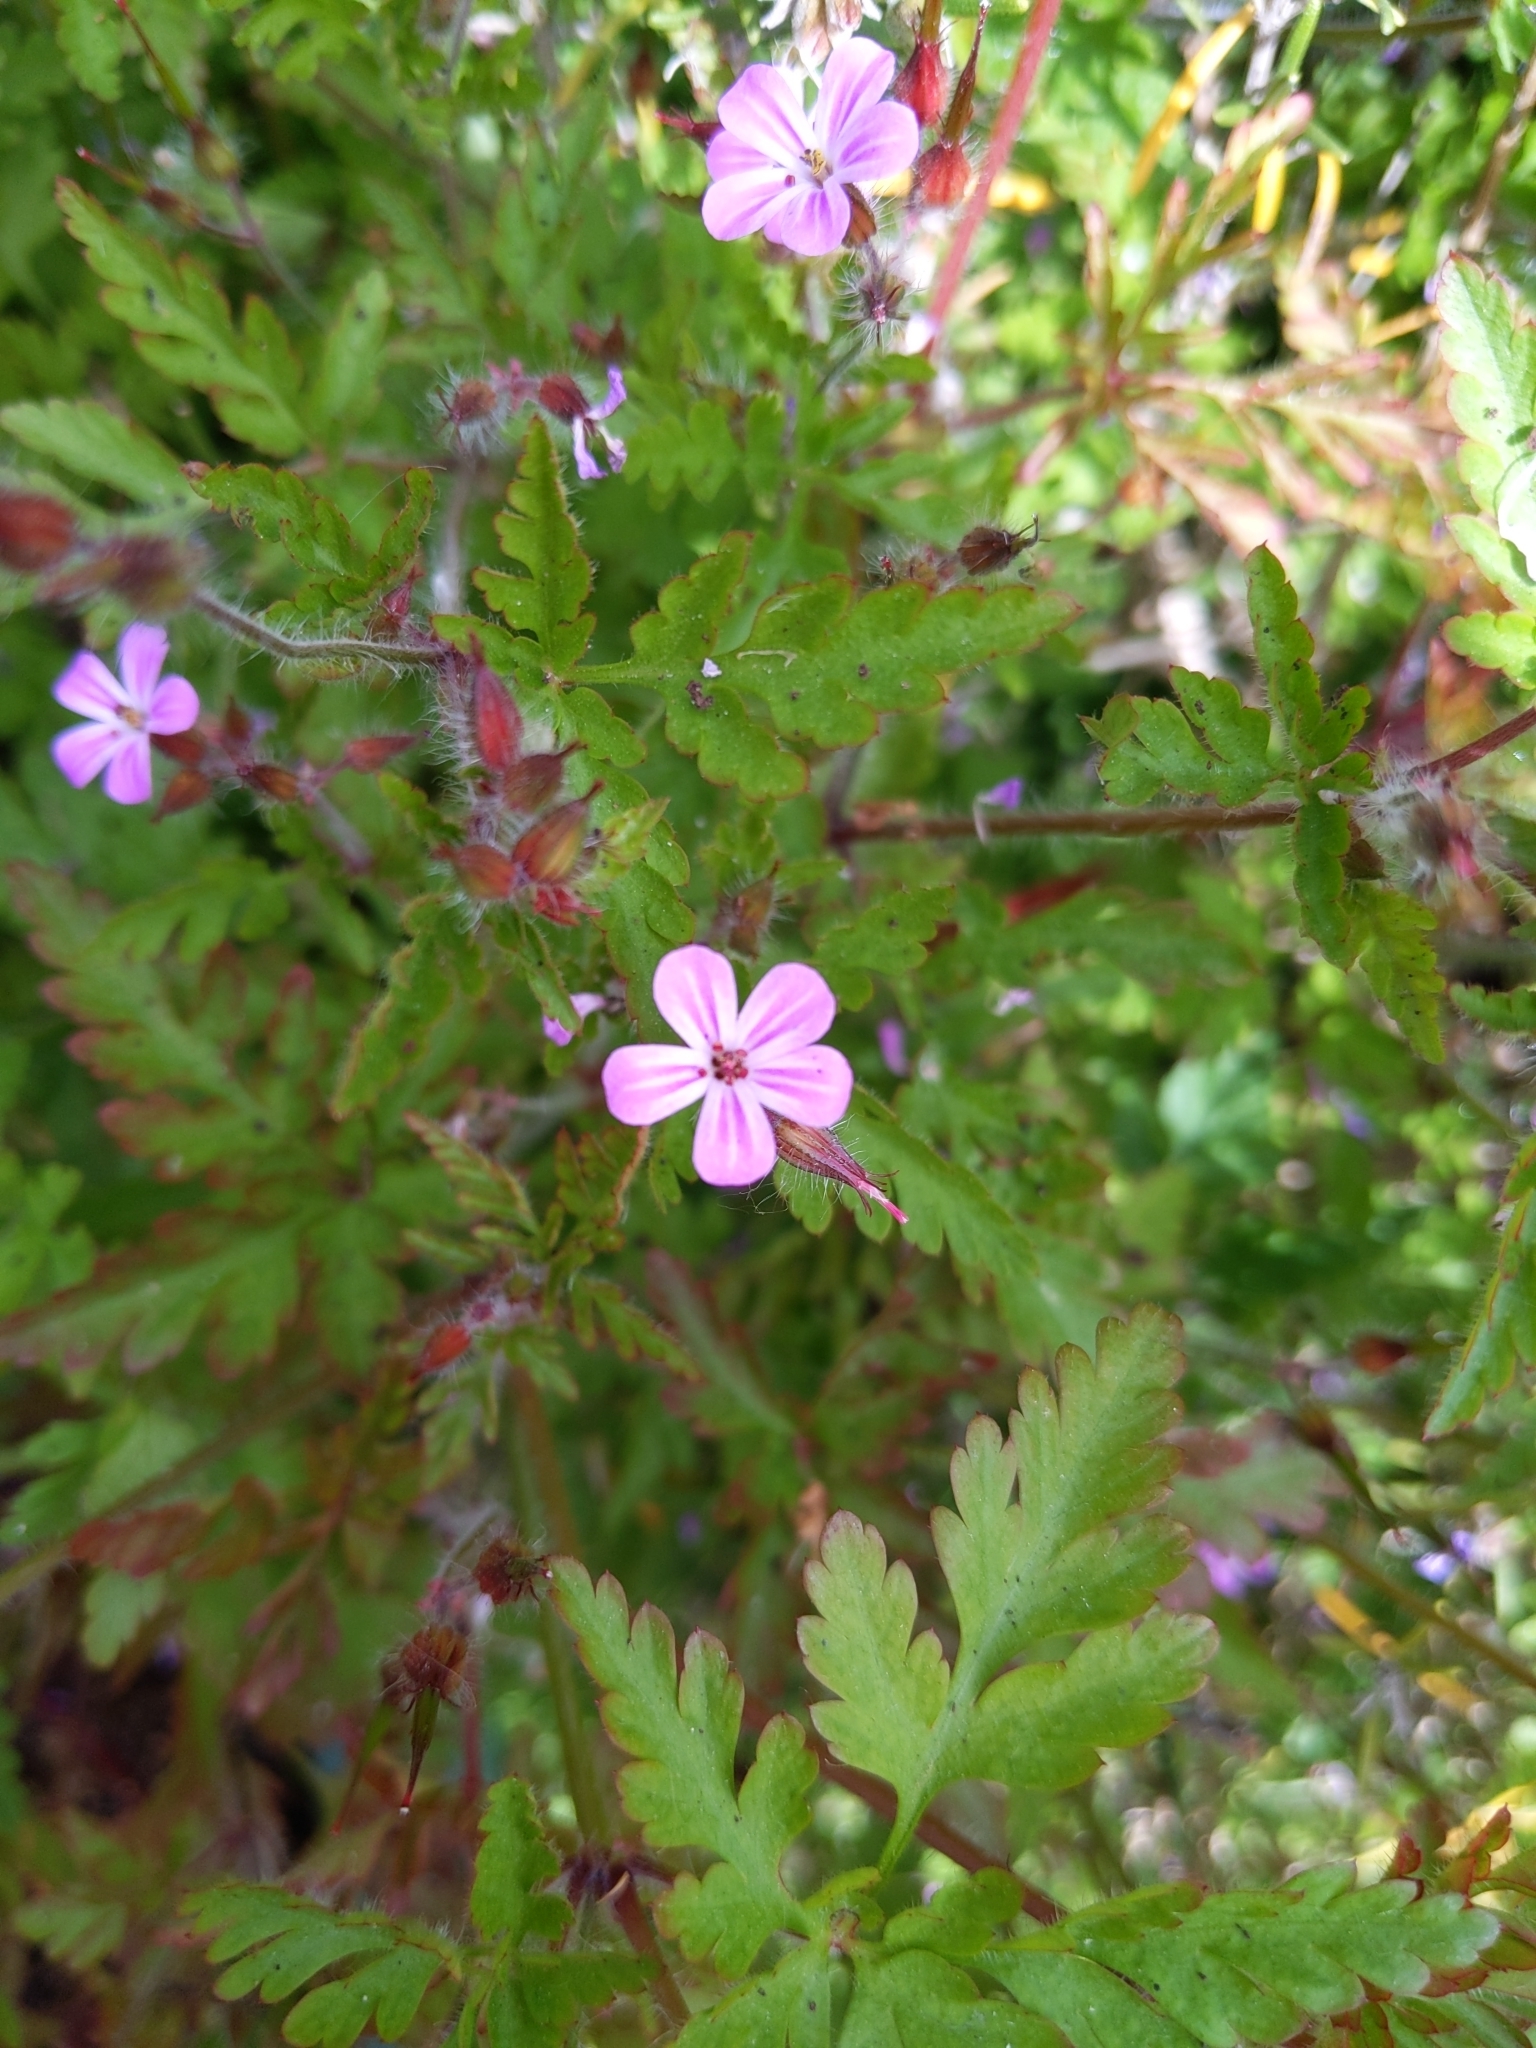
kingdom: Plantae
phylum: Tracheophyta
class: Magnoliopsida
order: Geraniales
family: Geraniaceae
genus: Geranium
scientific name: Geranium robertianum
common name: Herb-robert
